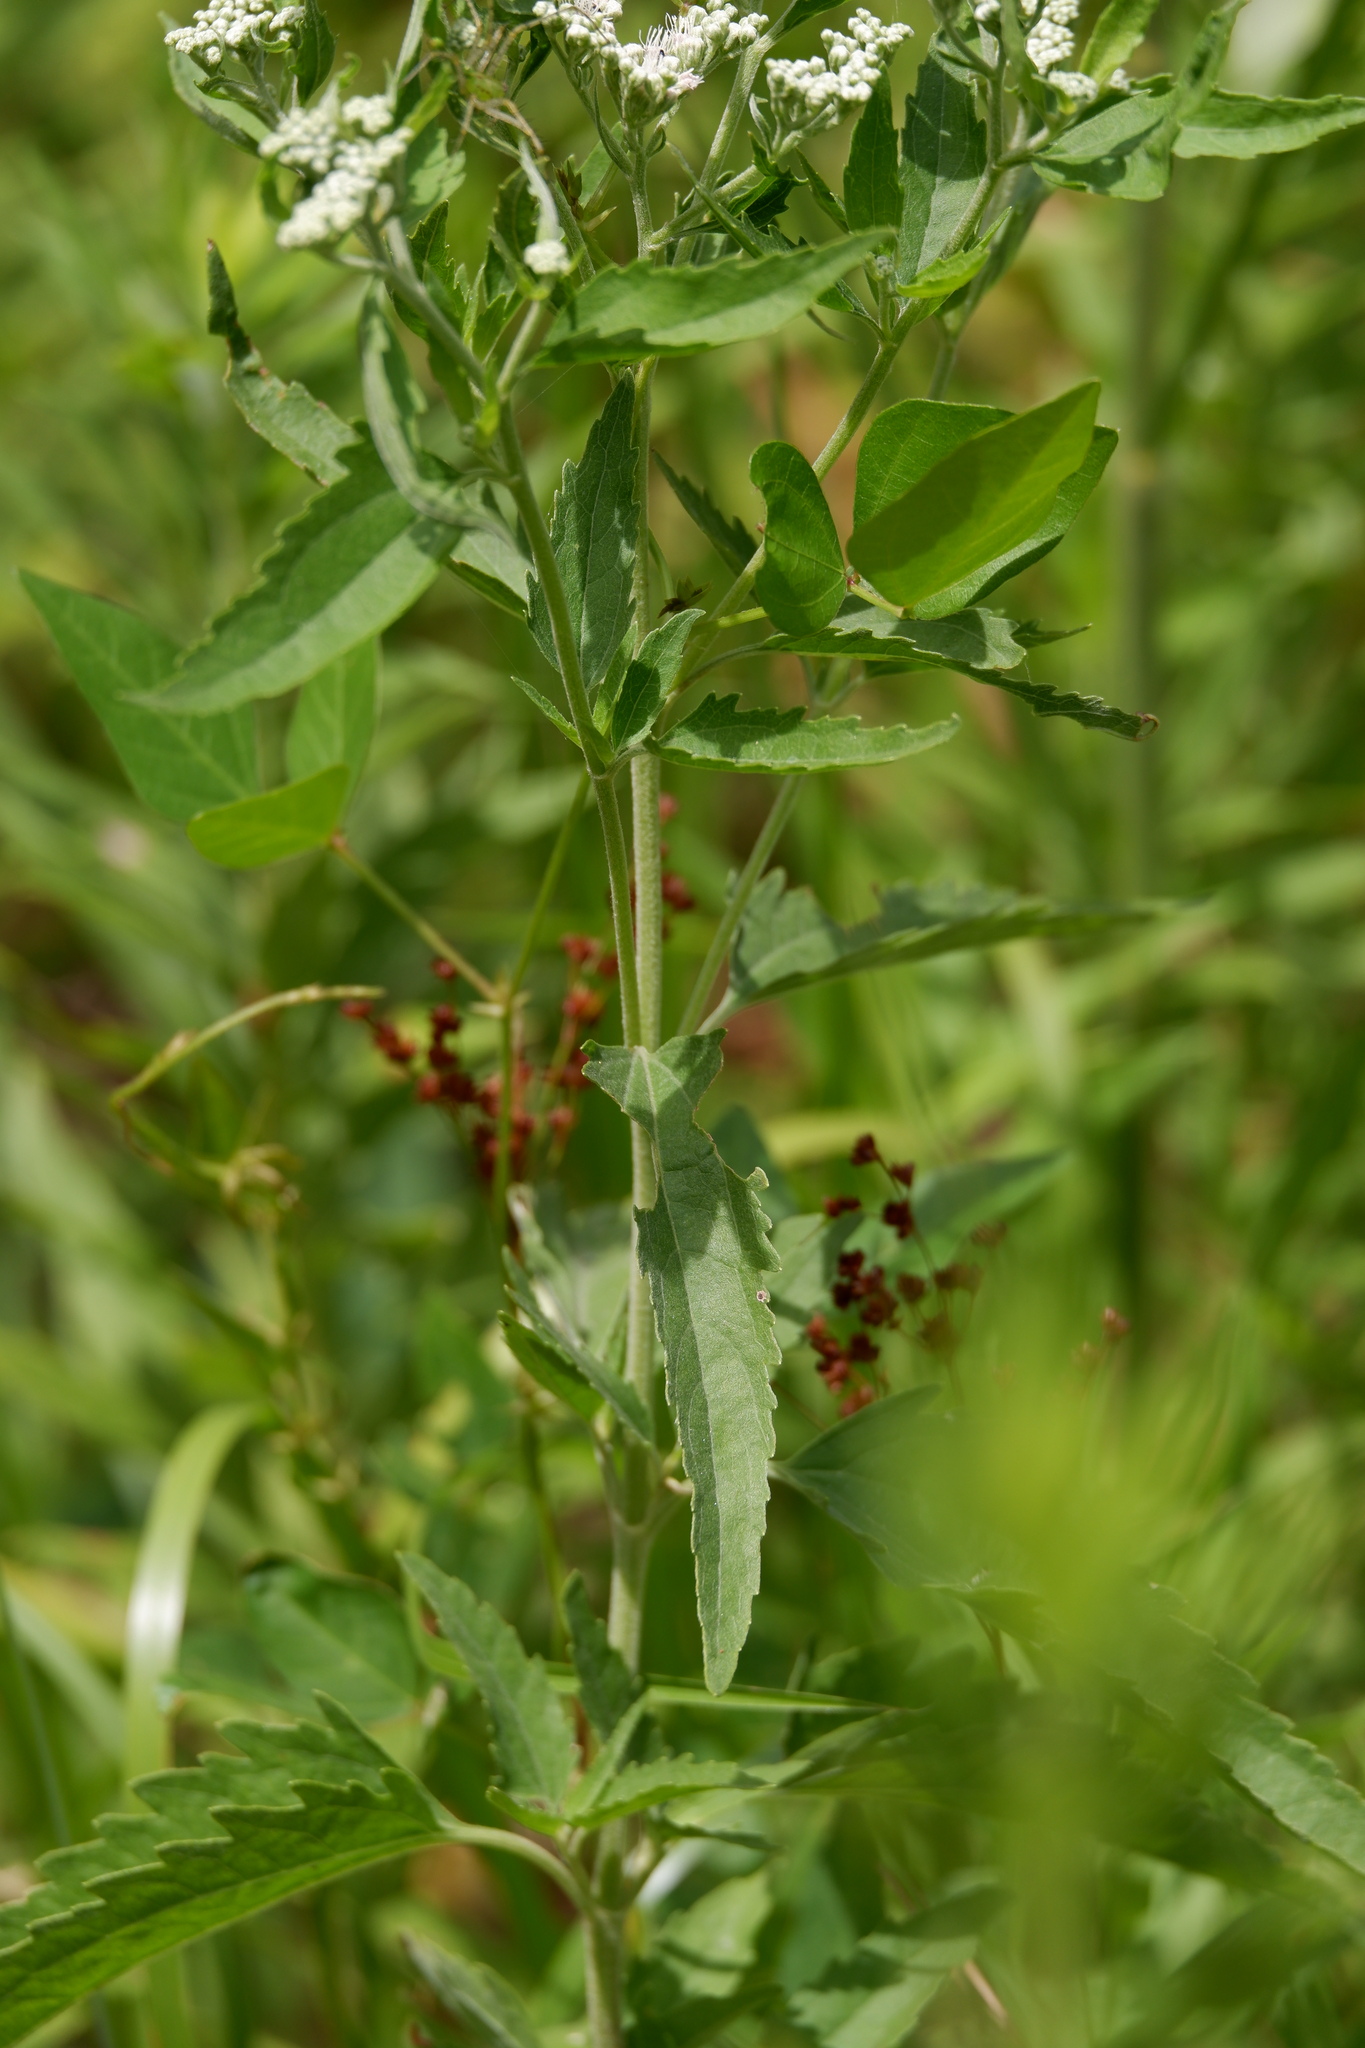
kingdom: Plantae
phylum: Tracheophyta
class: Magnoliopsida
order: Asterales
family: Asteraceae
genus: Eupatorium
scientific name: Eupatorium serotinum
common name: Late boneset
